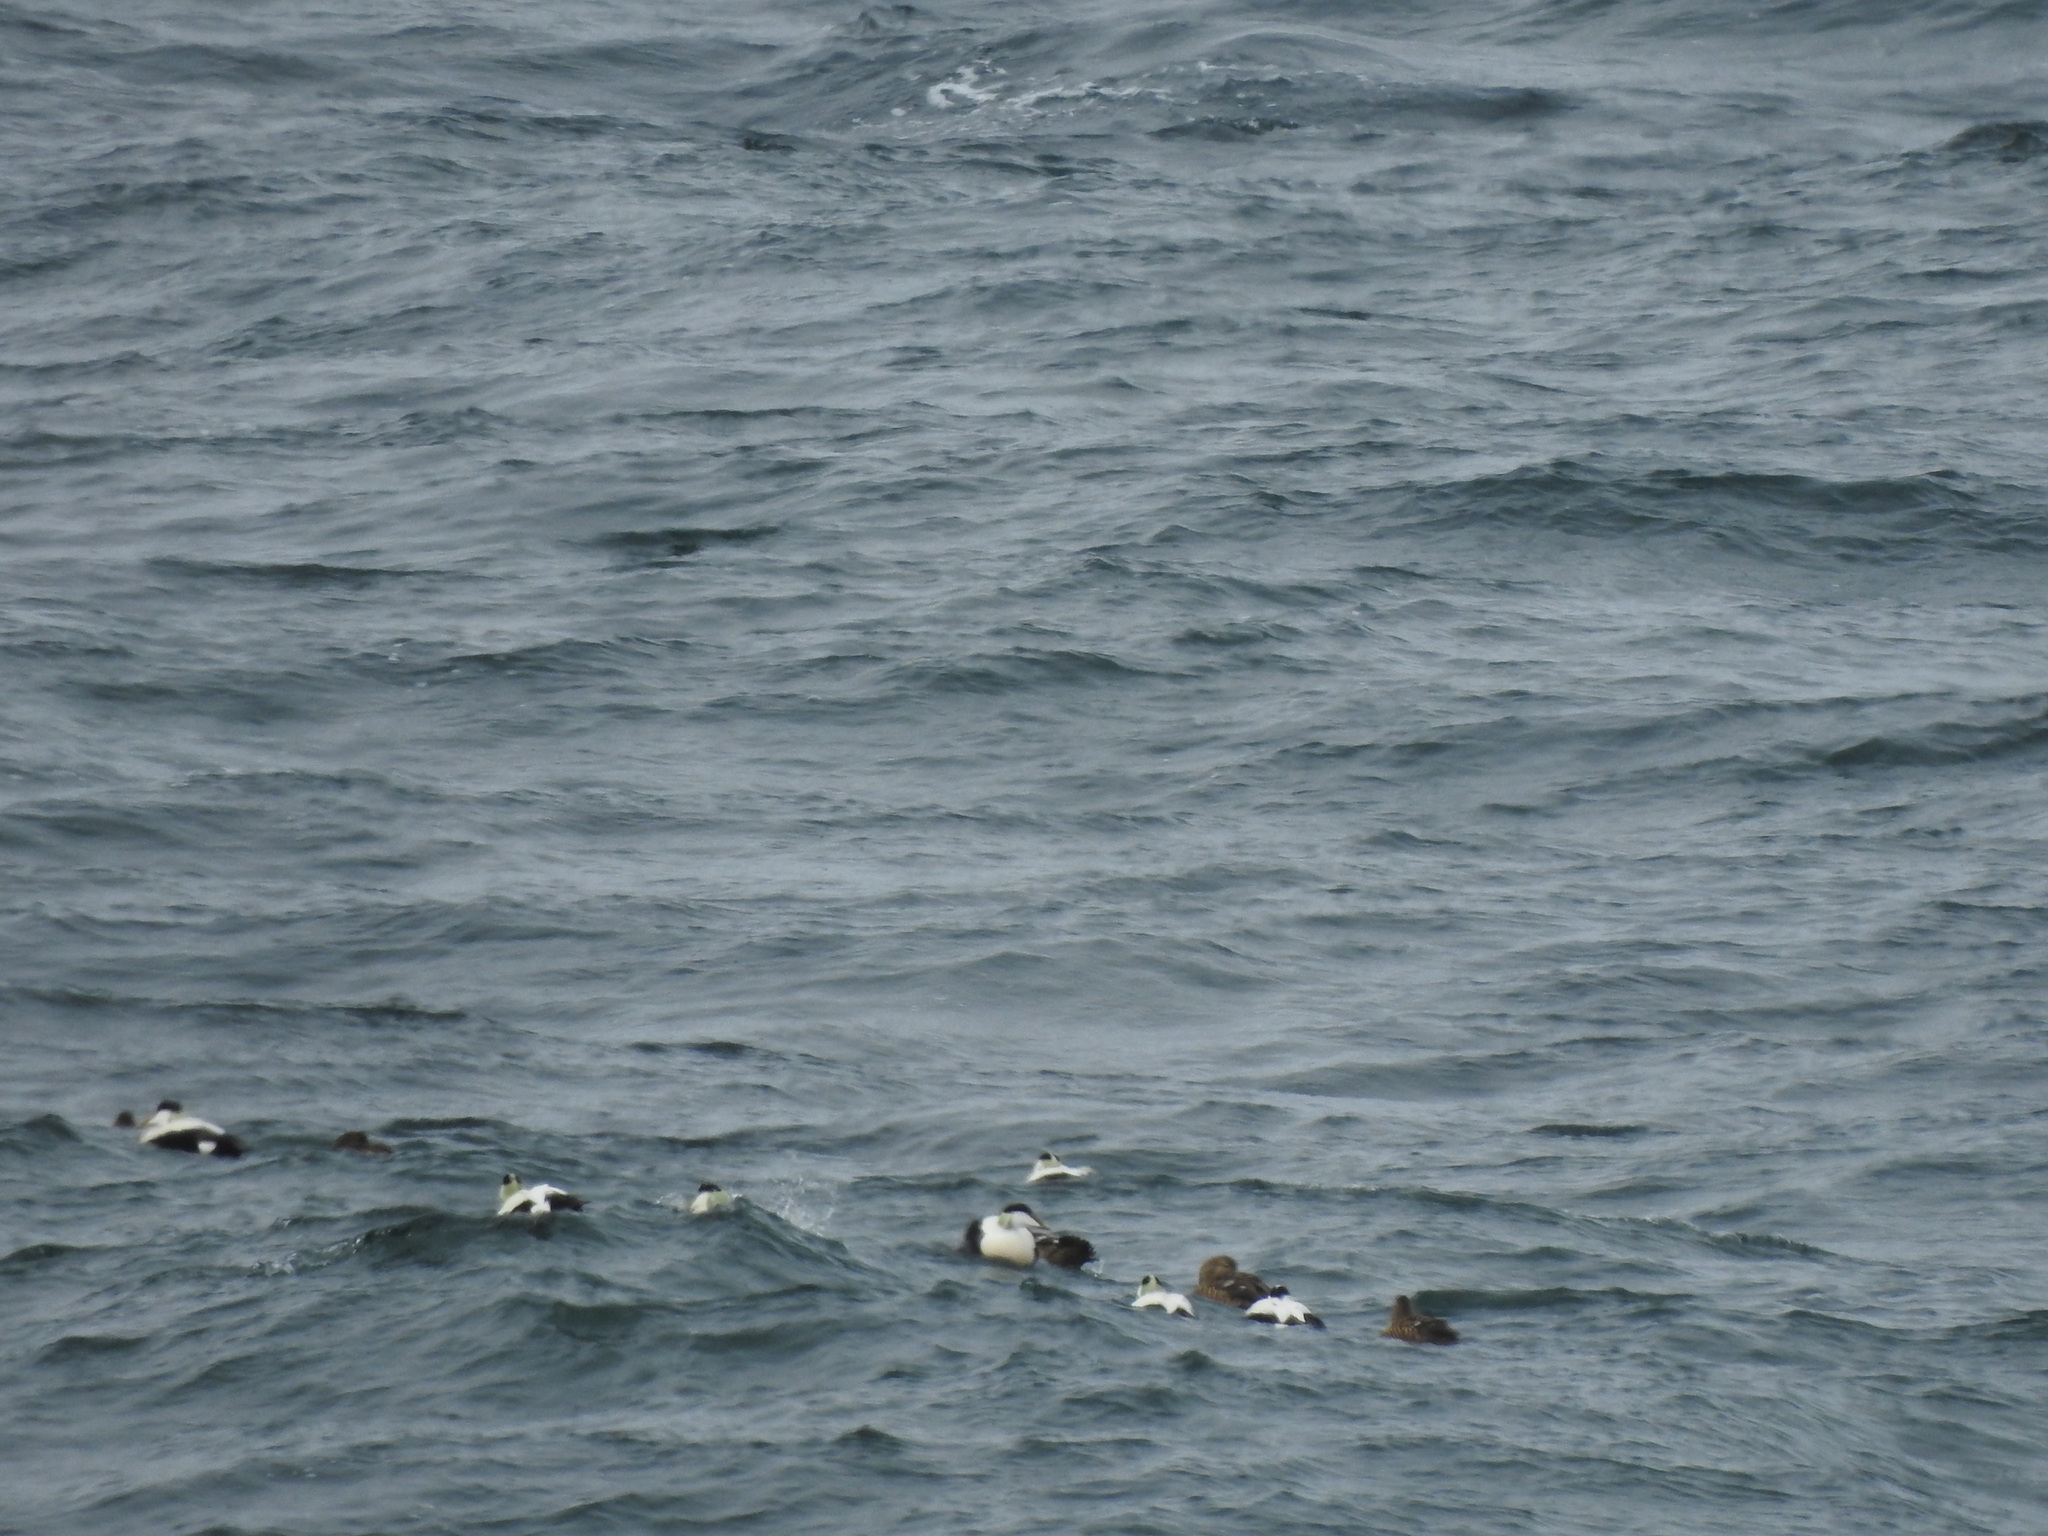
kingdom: Animalia
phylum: Chordata
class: Aves
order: Anseriformes
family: Anatidae
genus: Somateria
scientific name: Somateria mollissima
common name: Common eider
